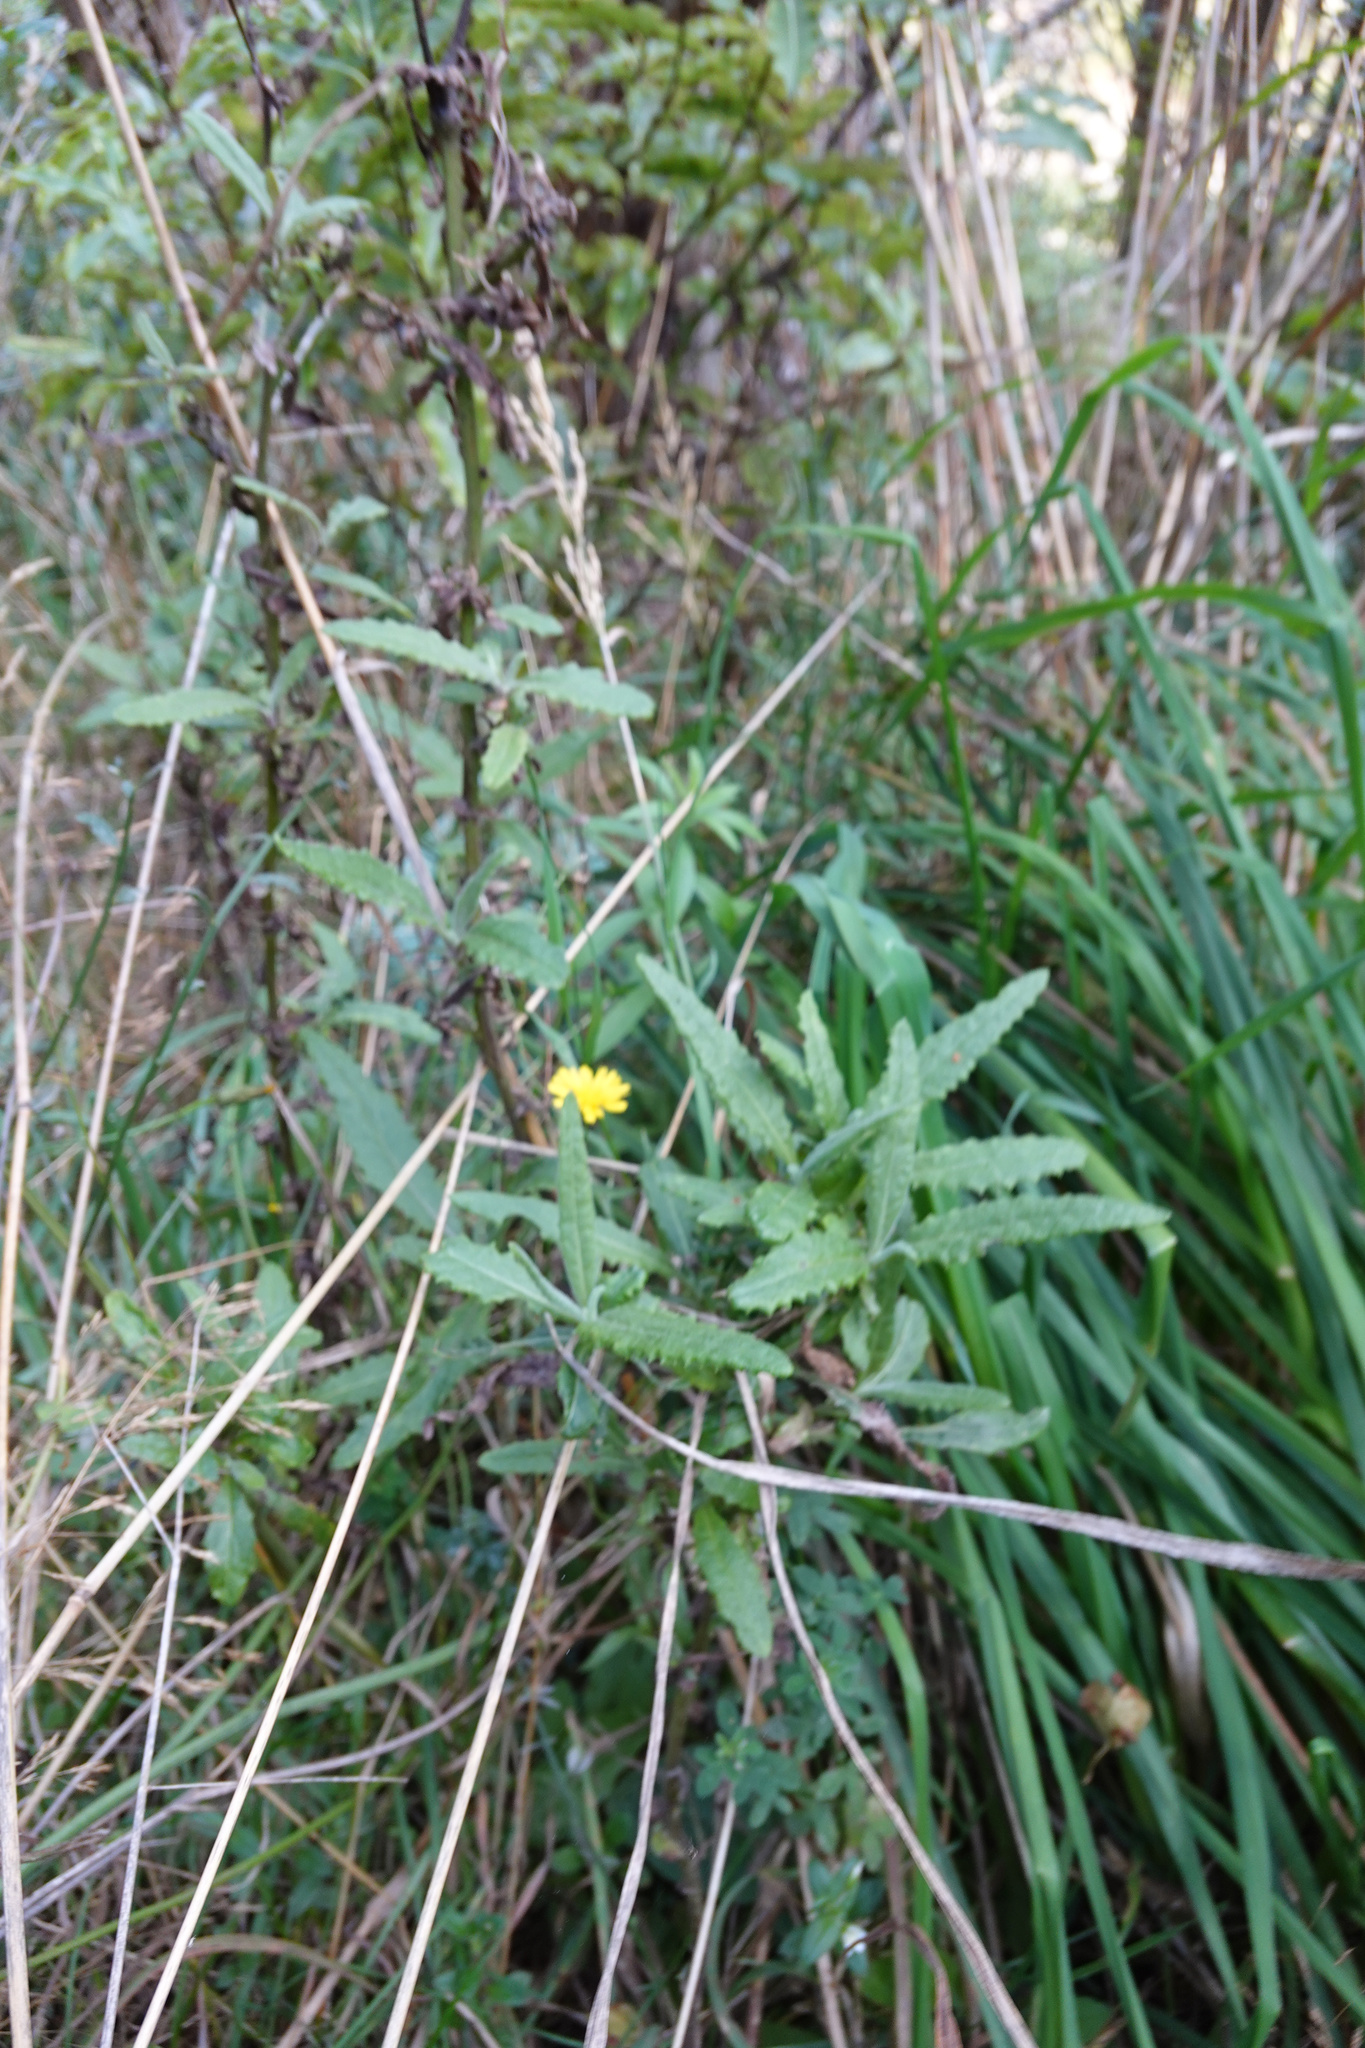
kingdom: Plantae
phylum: Tracheophyta
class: Magnoliopsida
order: Asterales
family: Asteraceae
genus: Senecio
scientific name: Senecio minimus
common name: Toothed fireweed
